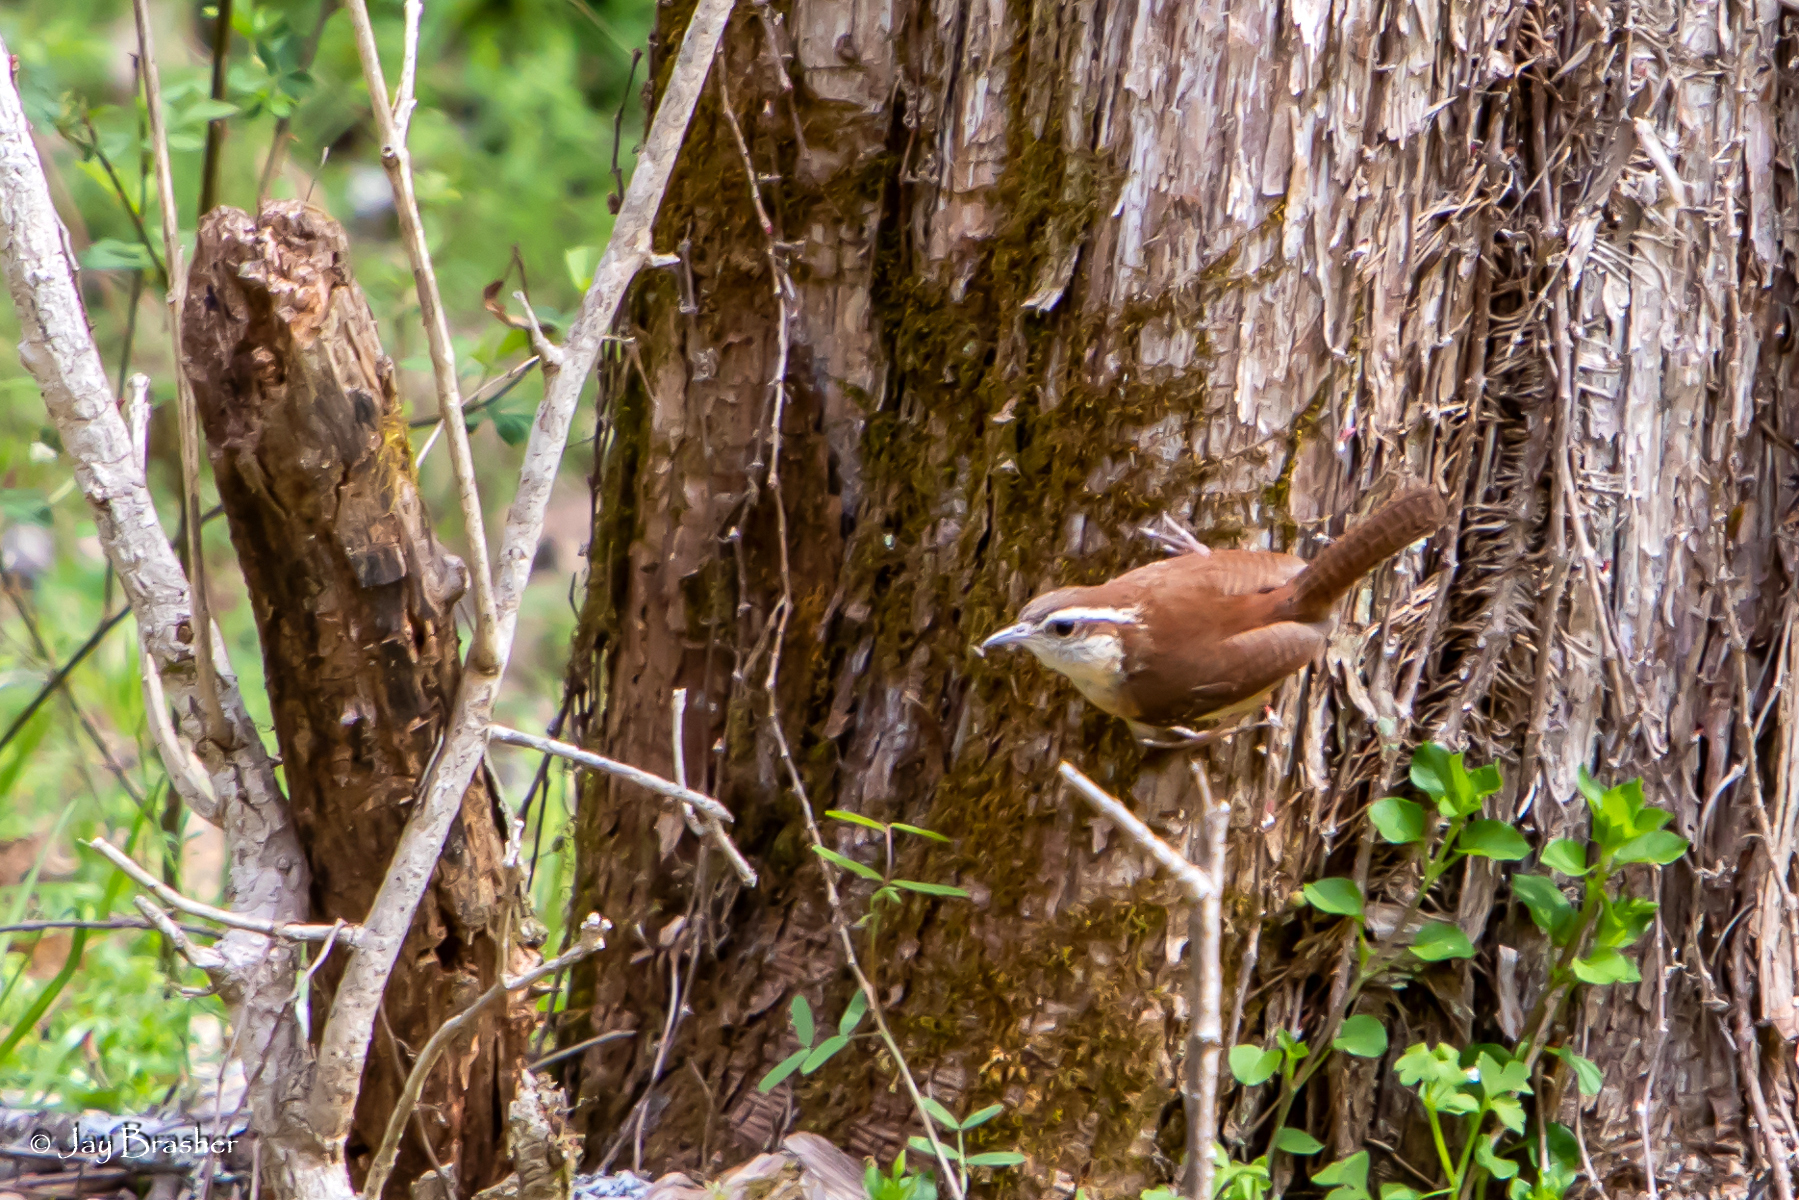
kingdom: Animalia
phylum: Chordata
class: Aves
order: Passeriformes
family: Troglodytidae
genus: Thryothorus
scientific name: Thryothorus ludovicianus
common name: Carolina wren
